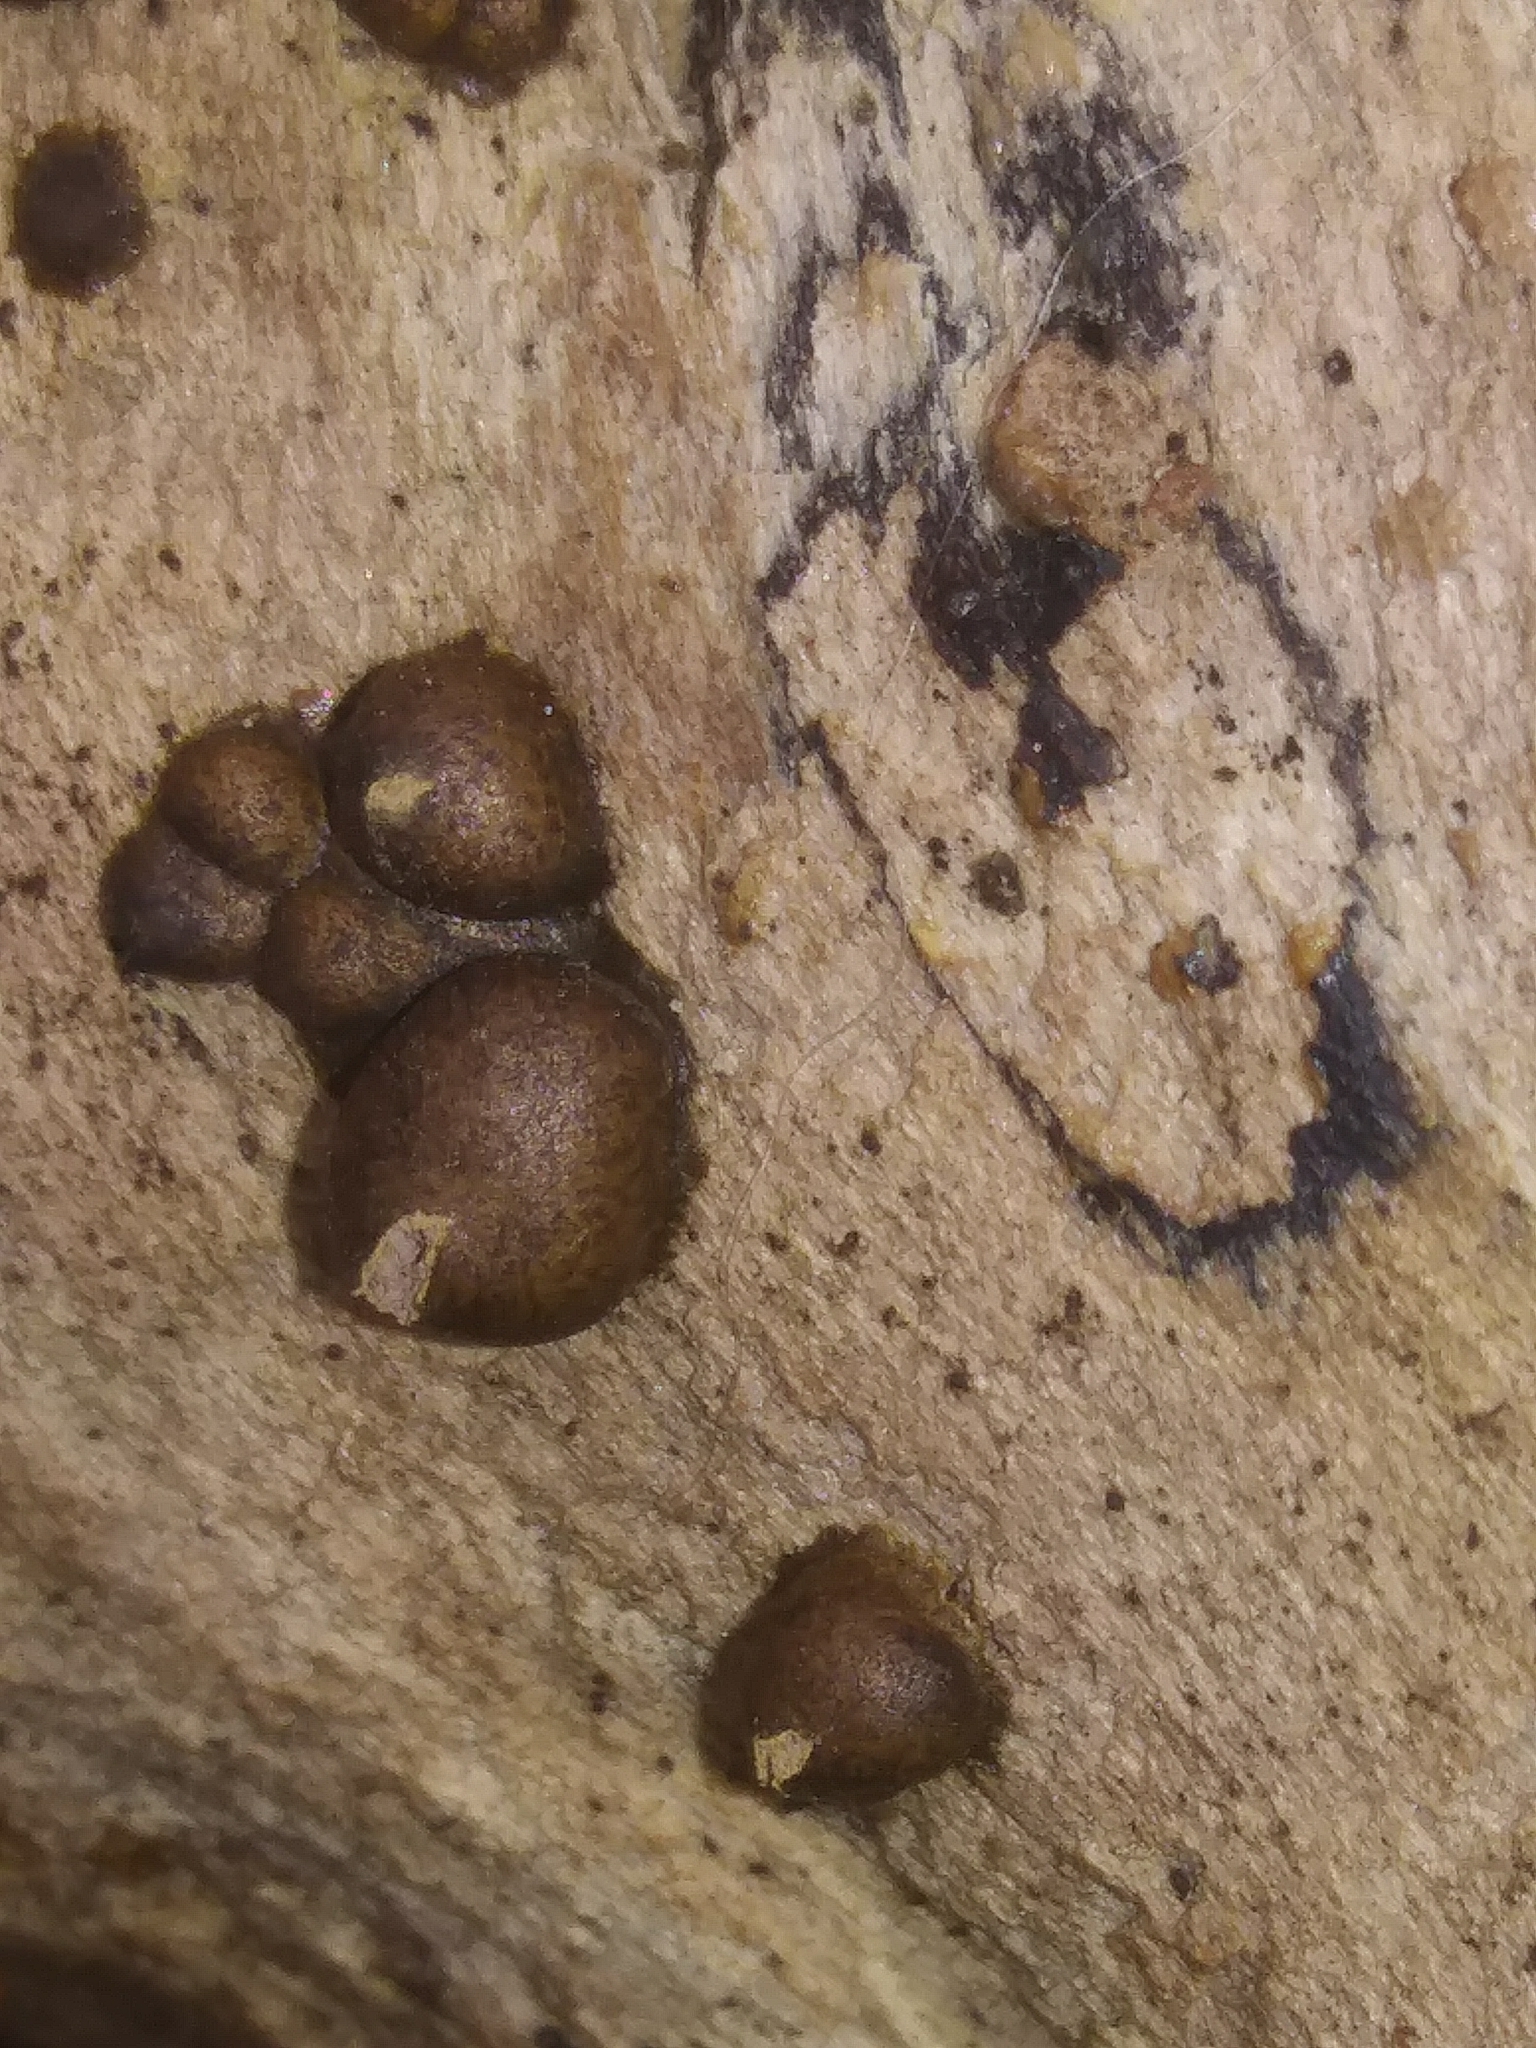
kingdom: Protozoa
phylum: Mycetozoa
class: Myxomycetes
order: Cribrariales
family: Tubiferaceae
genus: Lycogala
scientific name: Lycogala epidendrum
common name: Wolf's milk
